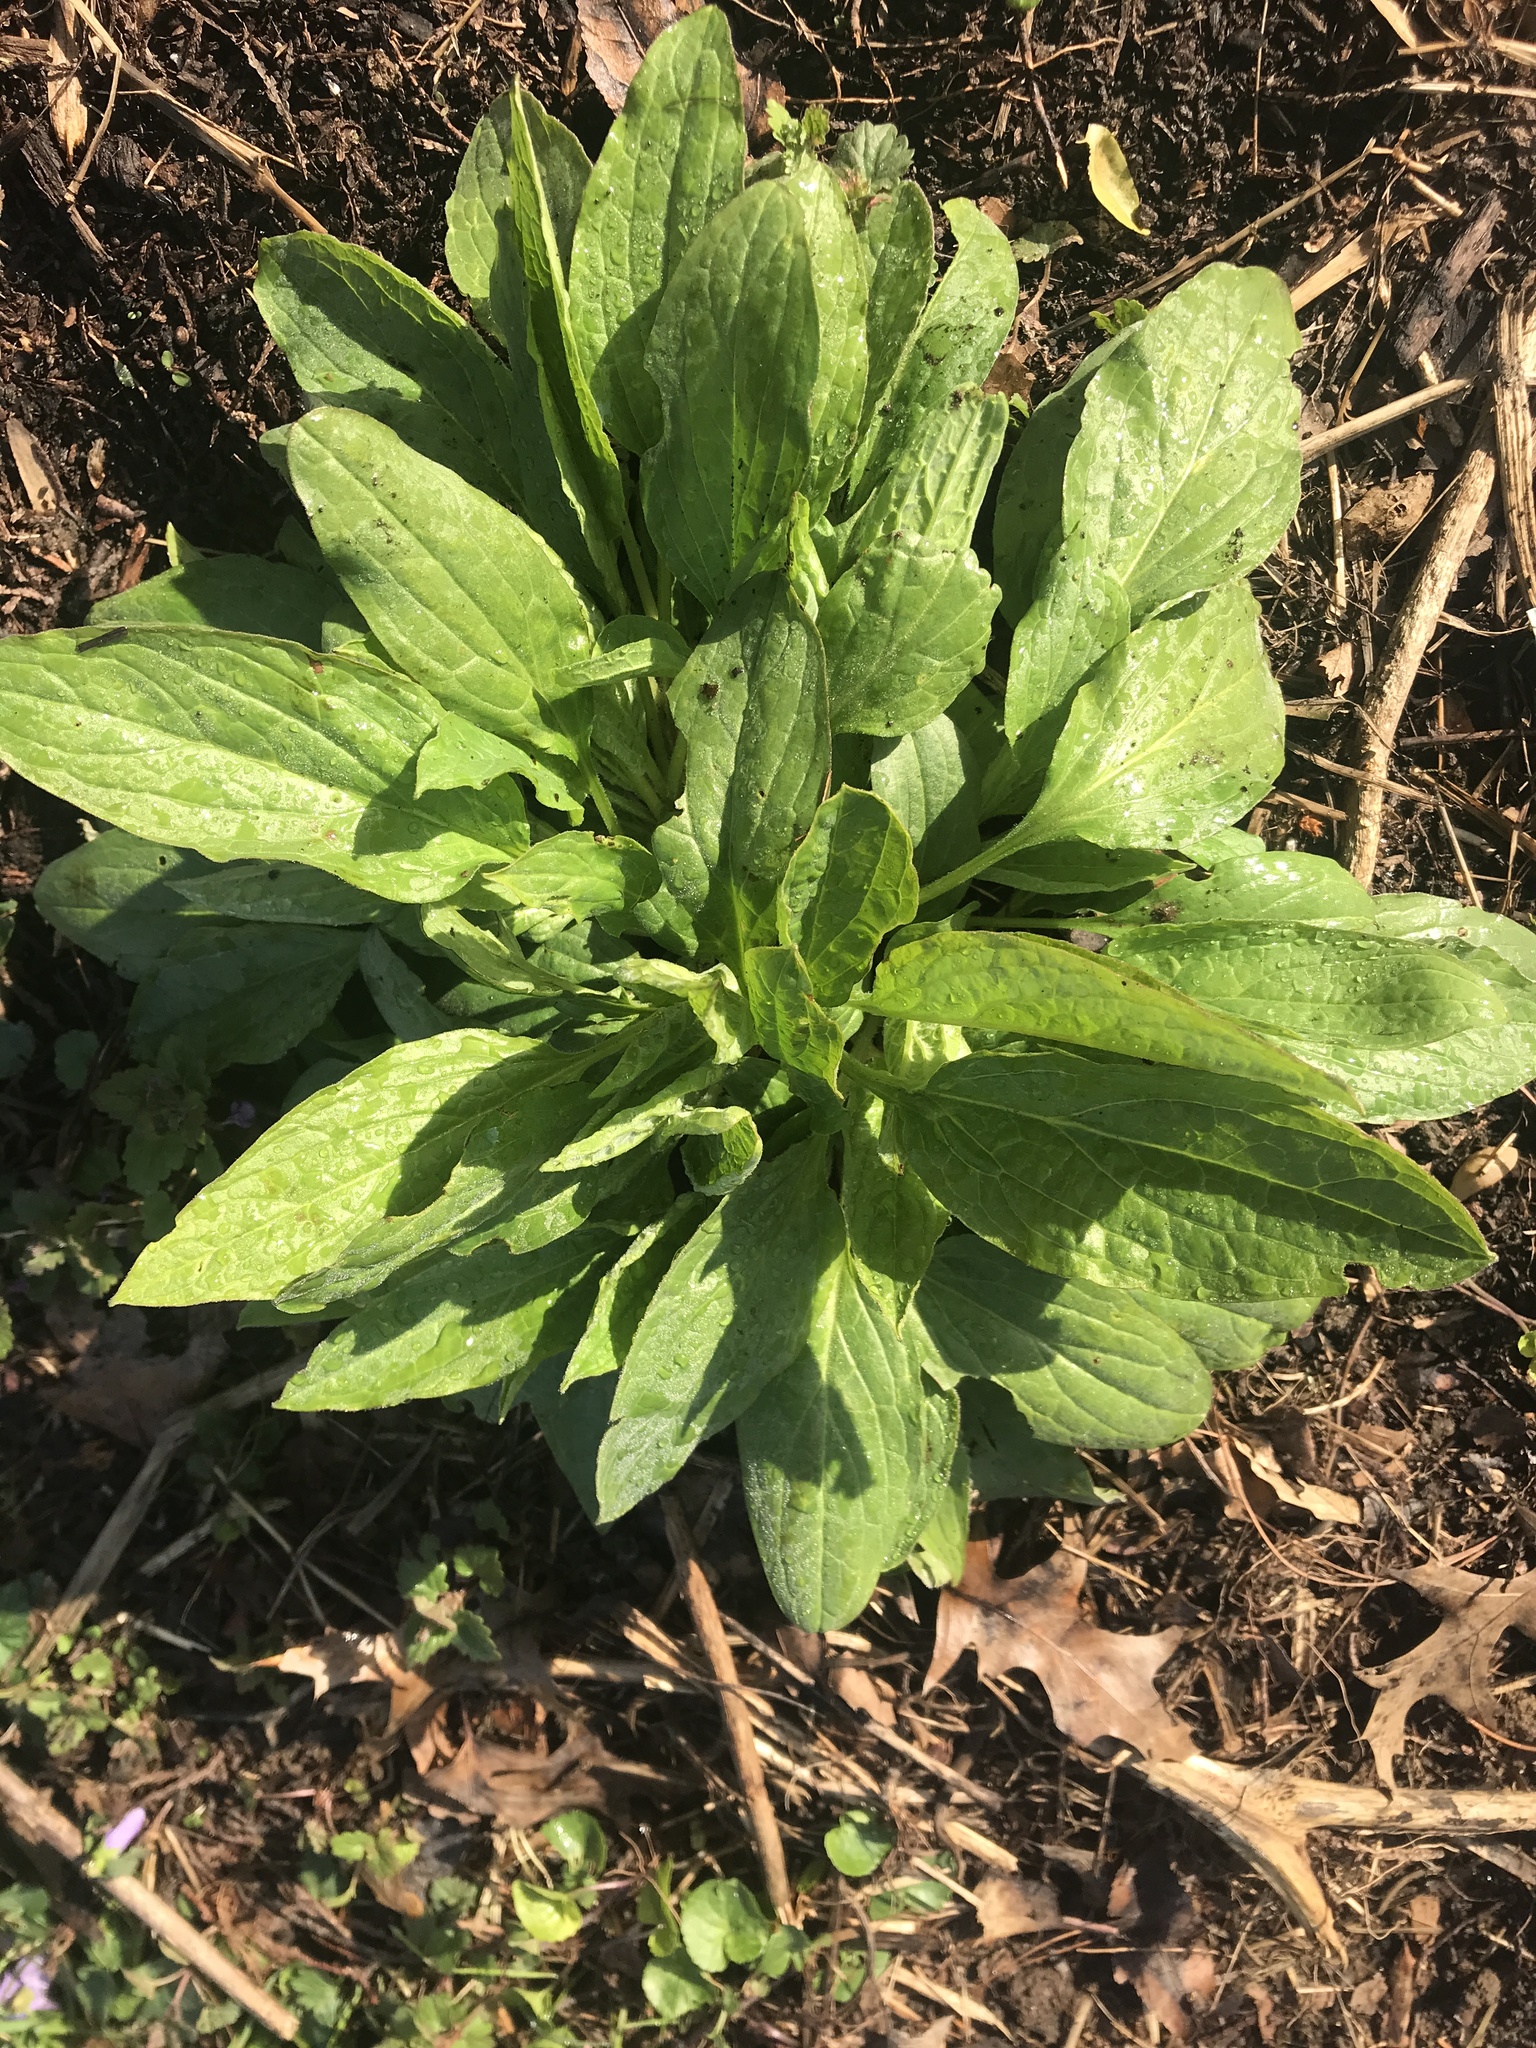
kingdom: Plantae
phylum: Tracheophyta
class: Magnoliopsida
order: Boraginales
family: Boraginaceae
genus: Hackelia
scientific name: Hackelia virginiana
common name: Beggar's-lice
